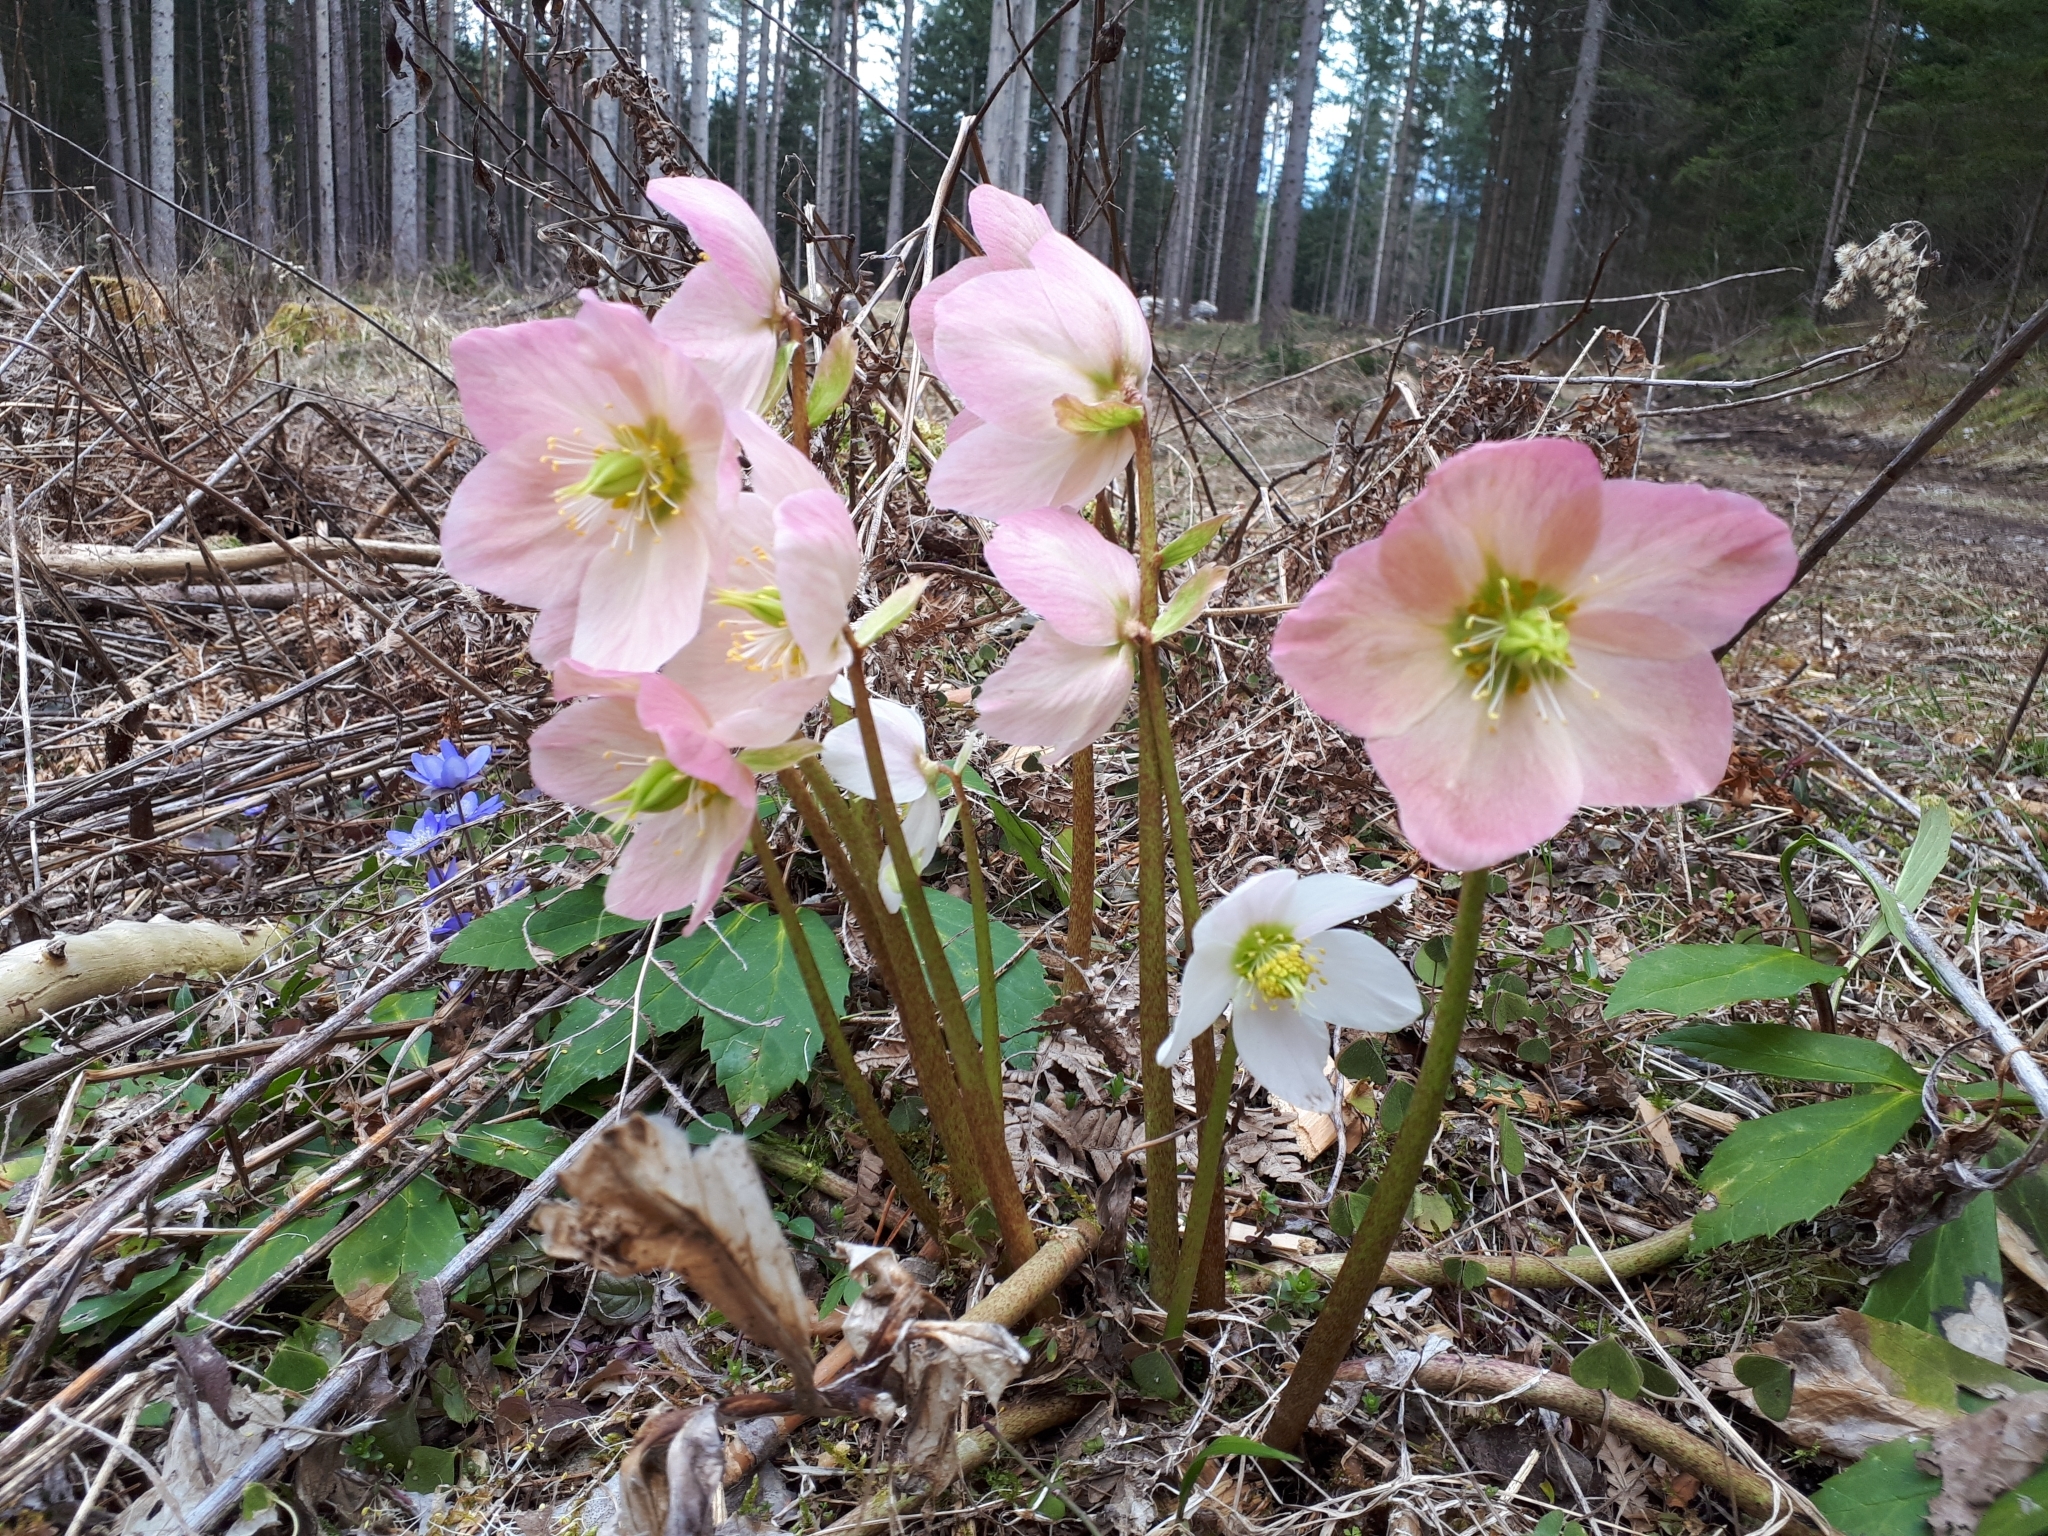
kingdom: Plantae
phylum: Tracheophyta
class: Magnoliopsida
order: Ranunculales
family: Ranunculaceae
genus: Helleborus
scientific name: Helleborus niger
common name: Black hellebore
